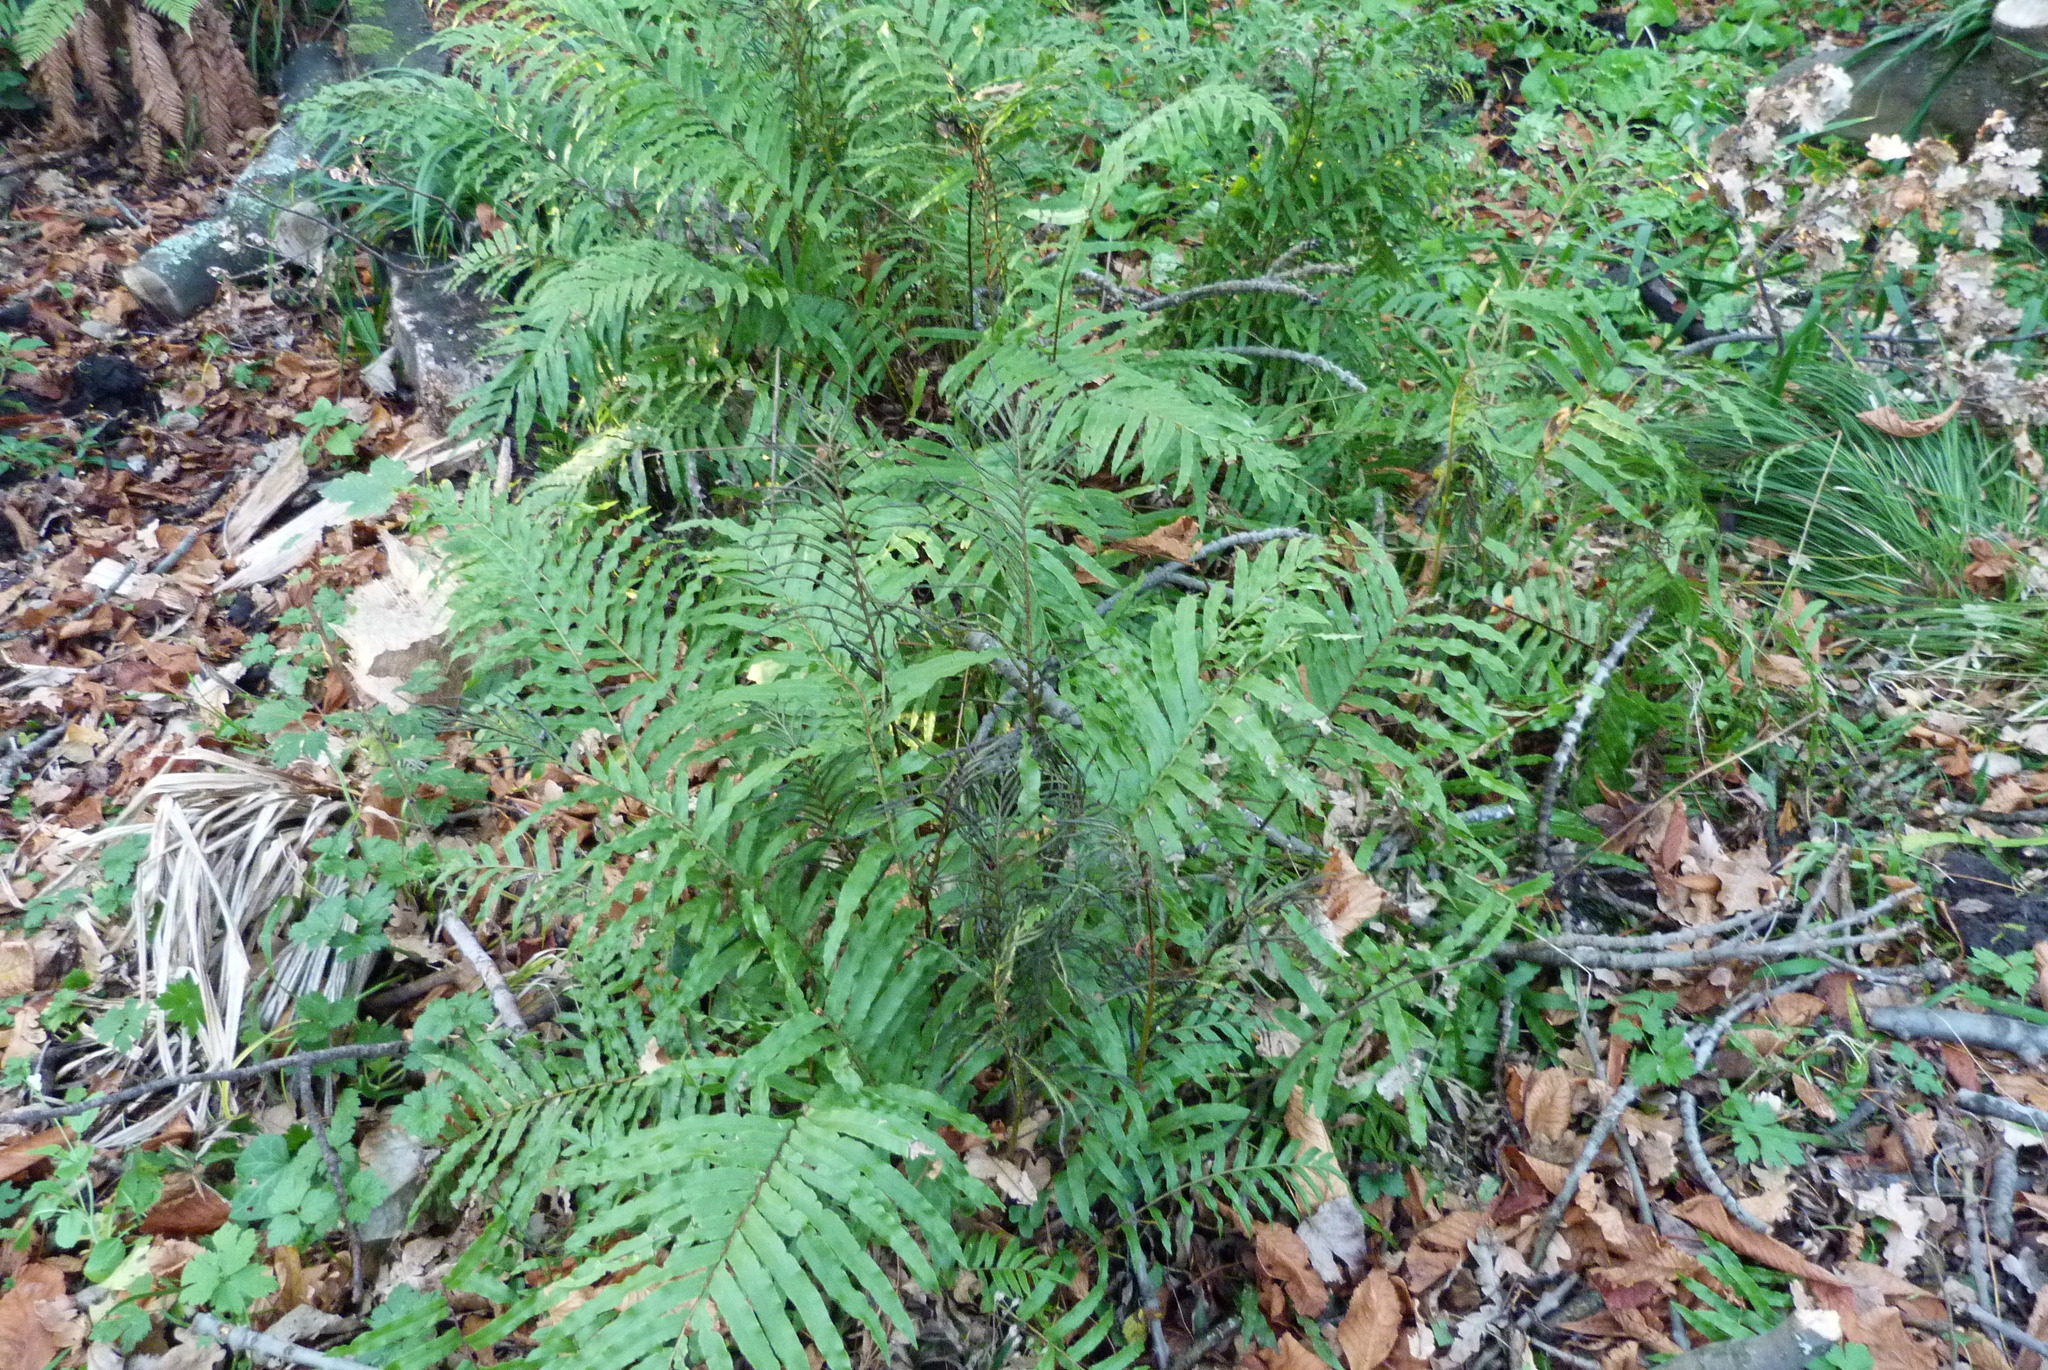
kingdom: Plantae
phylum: Tracheophyta
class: Polypodiopsida
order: Polypodiales
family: Blechnaceae
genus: Parablechnum
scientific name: Parablechnum novae-zelandiae
